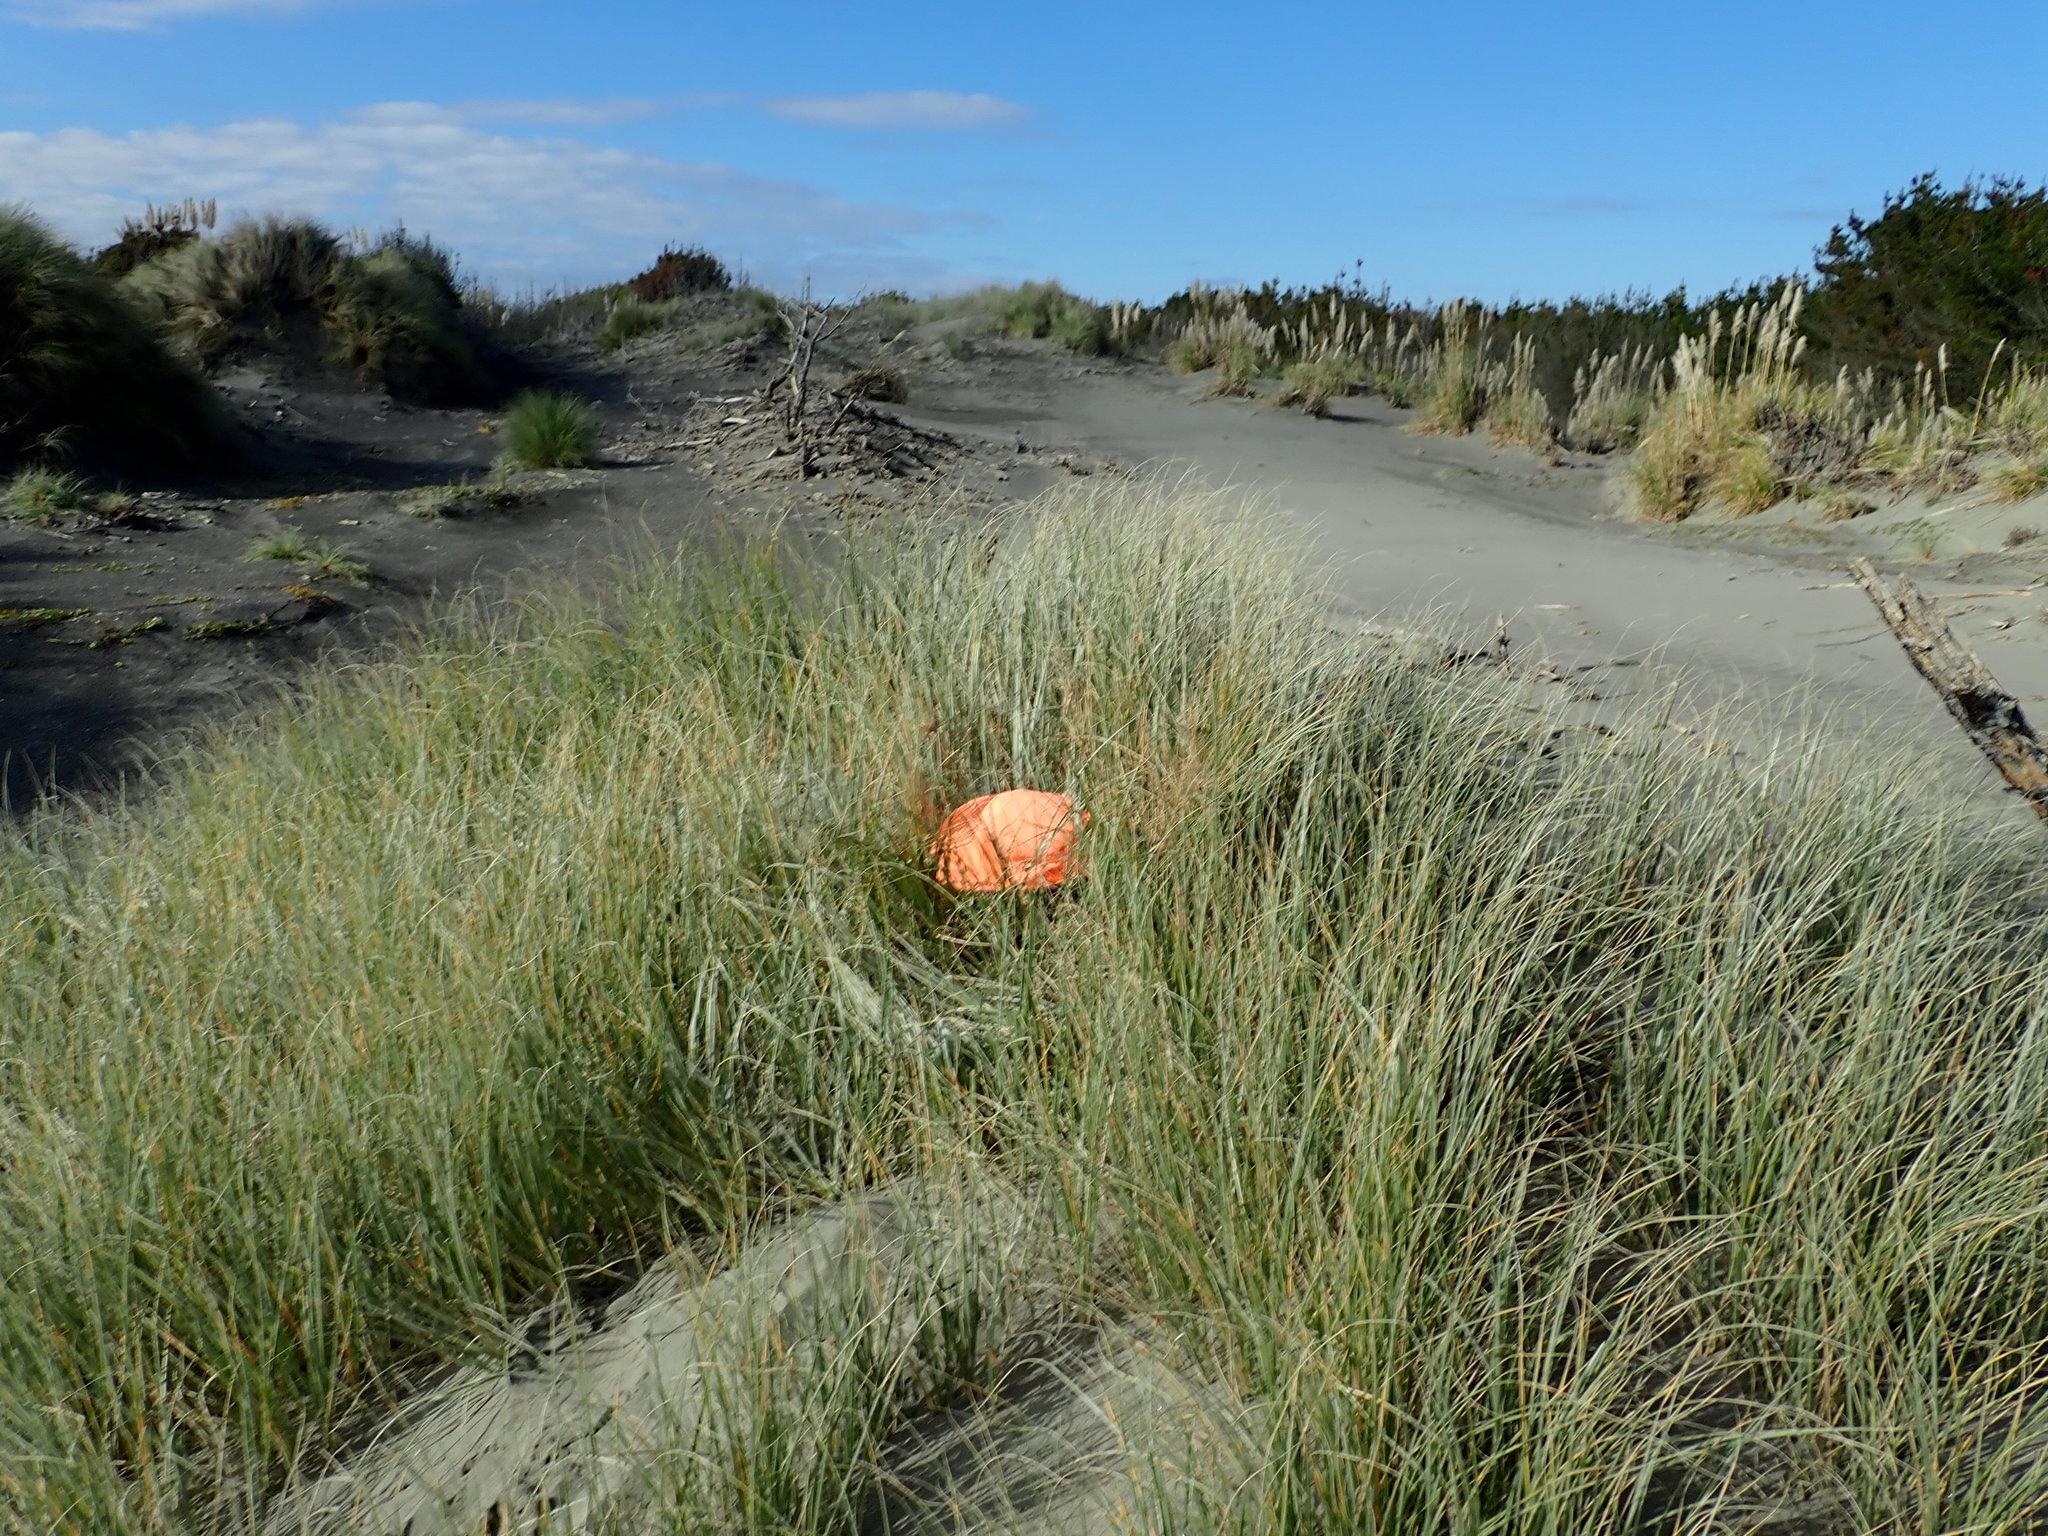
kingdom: Animalia
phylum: Arthropoda
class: Arachnida
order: Araneae
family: Theridiidae
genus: Latrodectus
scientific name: Latrodectus katipo
